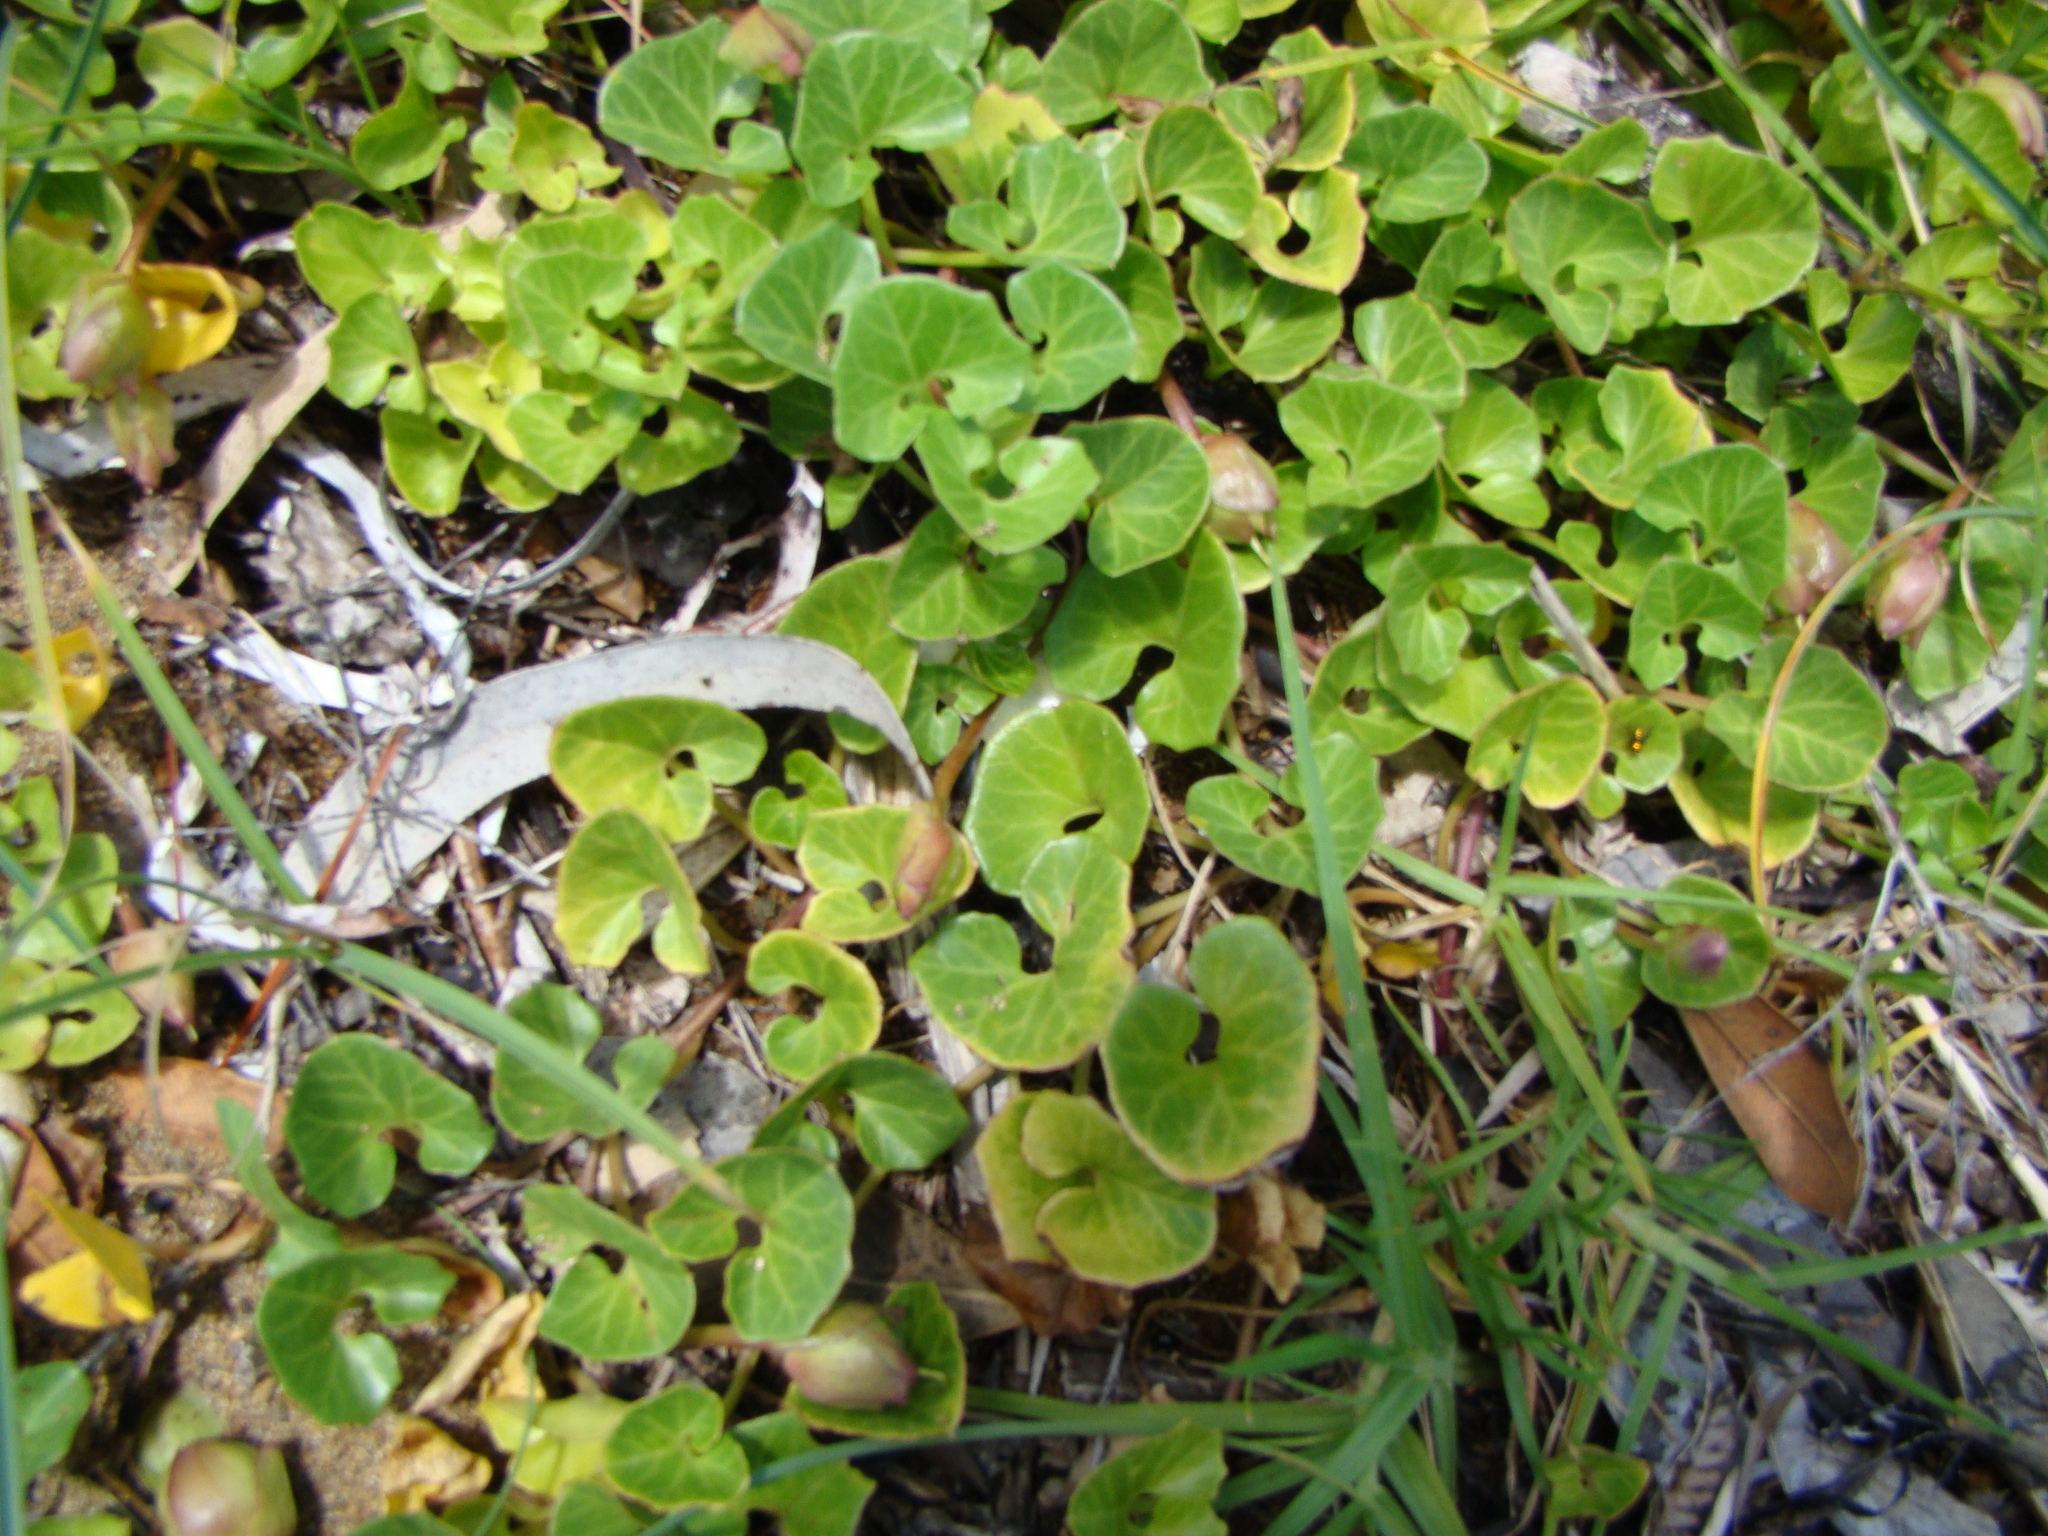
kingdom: Plantae
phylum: Tracheophyta
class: Magnoliopsida
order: Solanales
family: Convolvulaceae
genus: Calystegia
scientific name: Calystegia soldanella
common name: Sea bindweed
